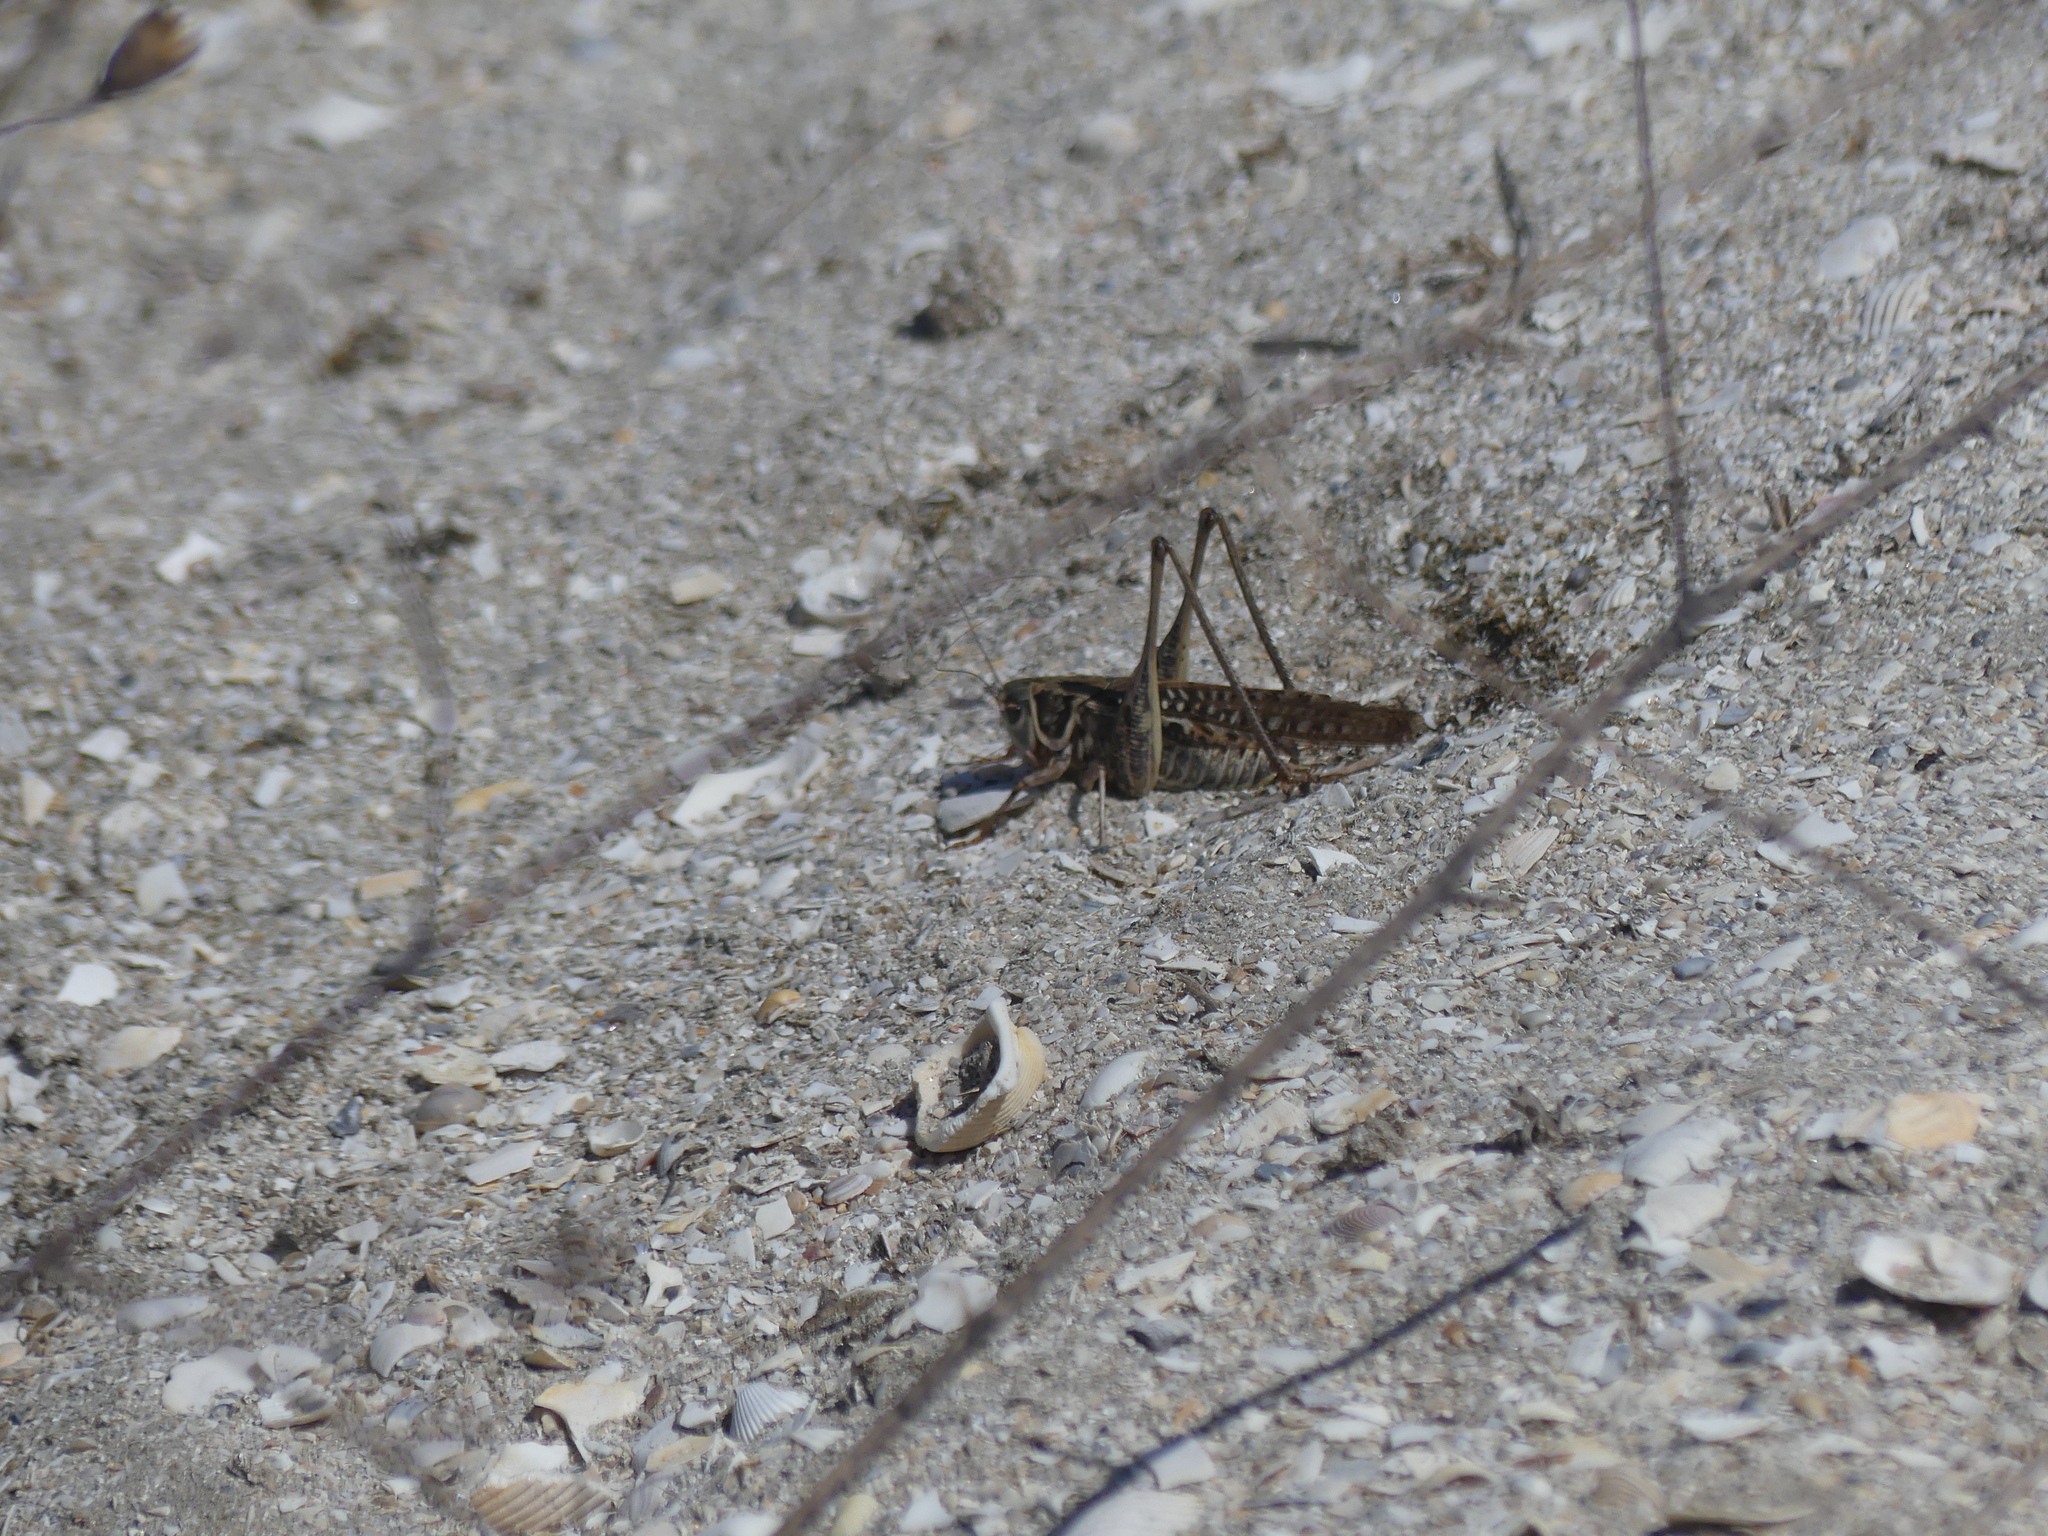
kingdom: Animalia
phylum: Arthropoda
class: Insecta
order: Orthoptera
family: Tettigoniidae
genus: Decticus
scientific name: Decticus albifrons
